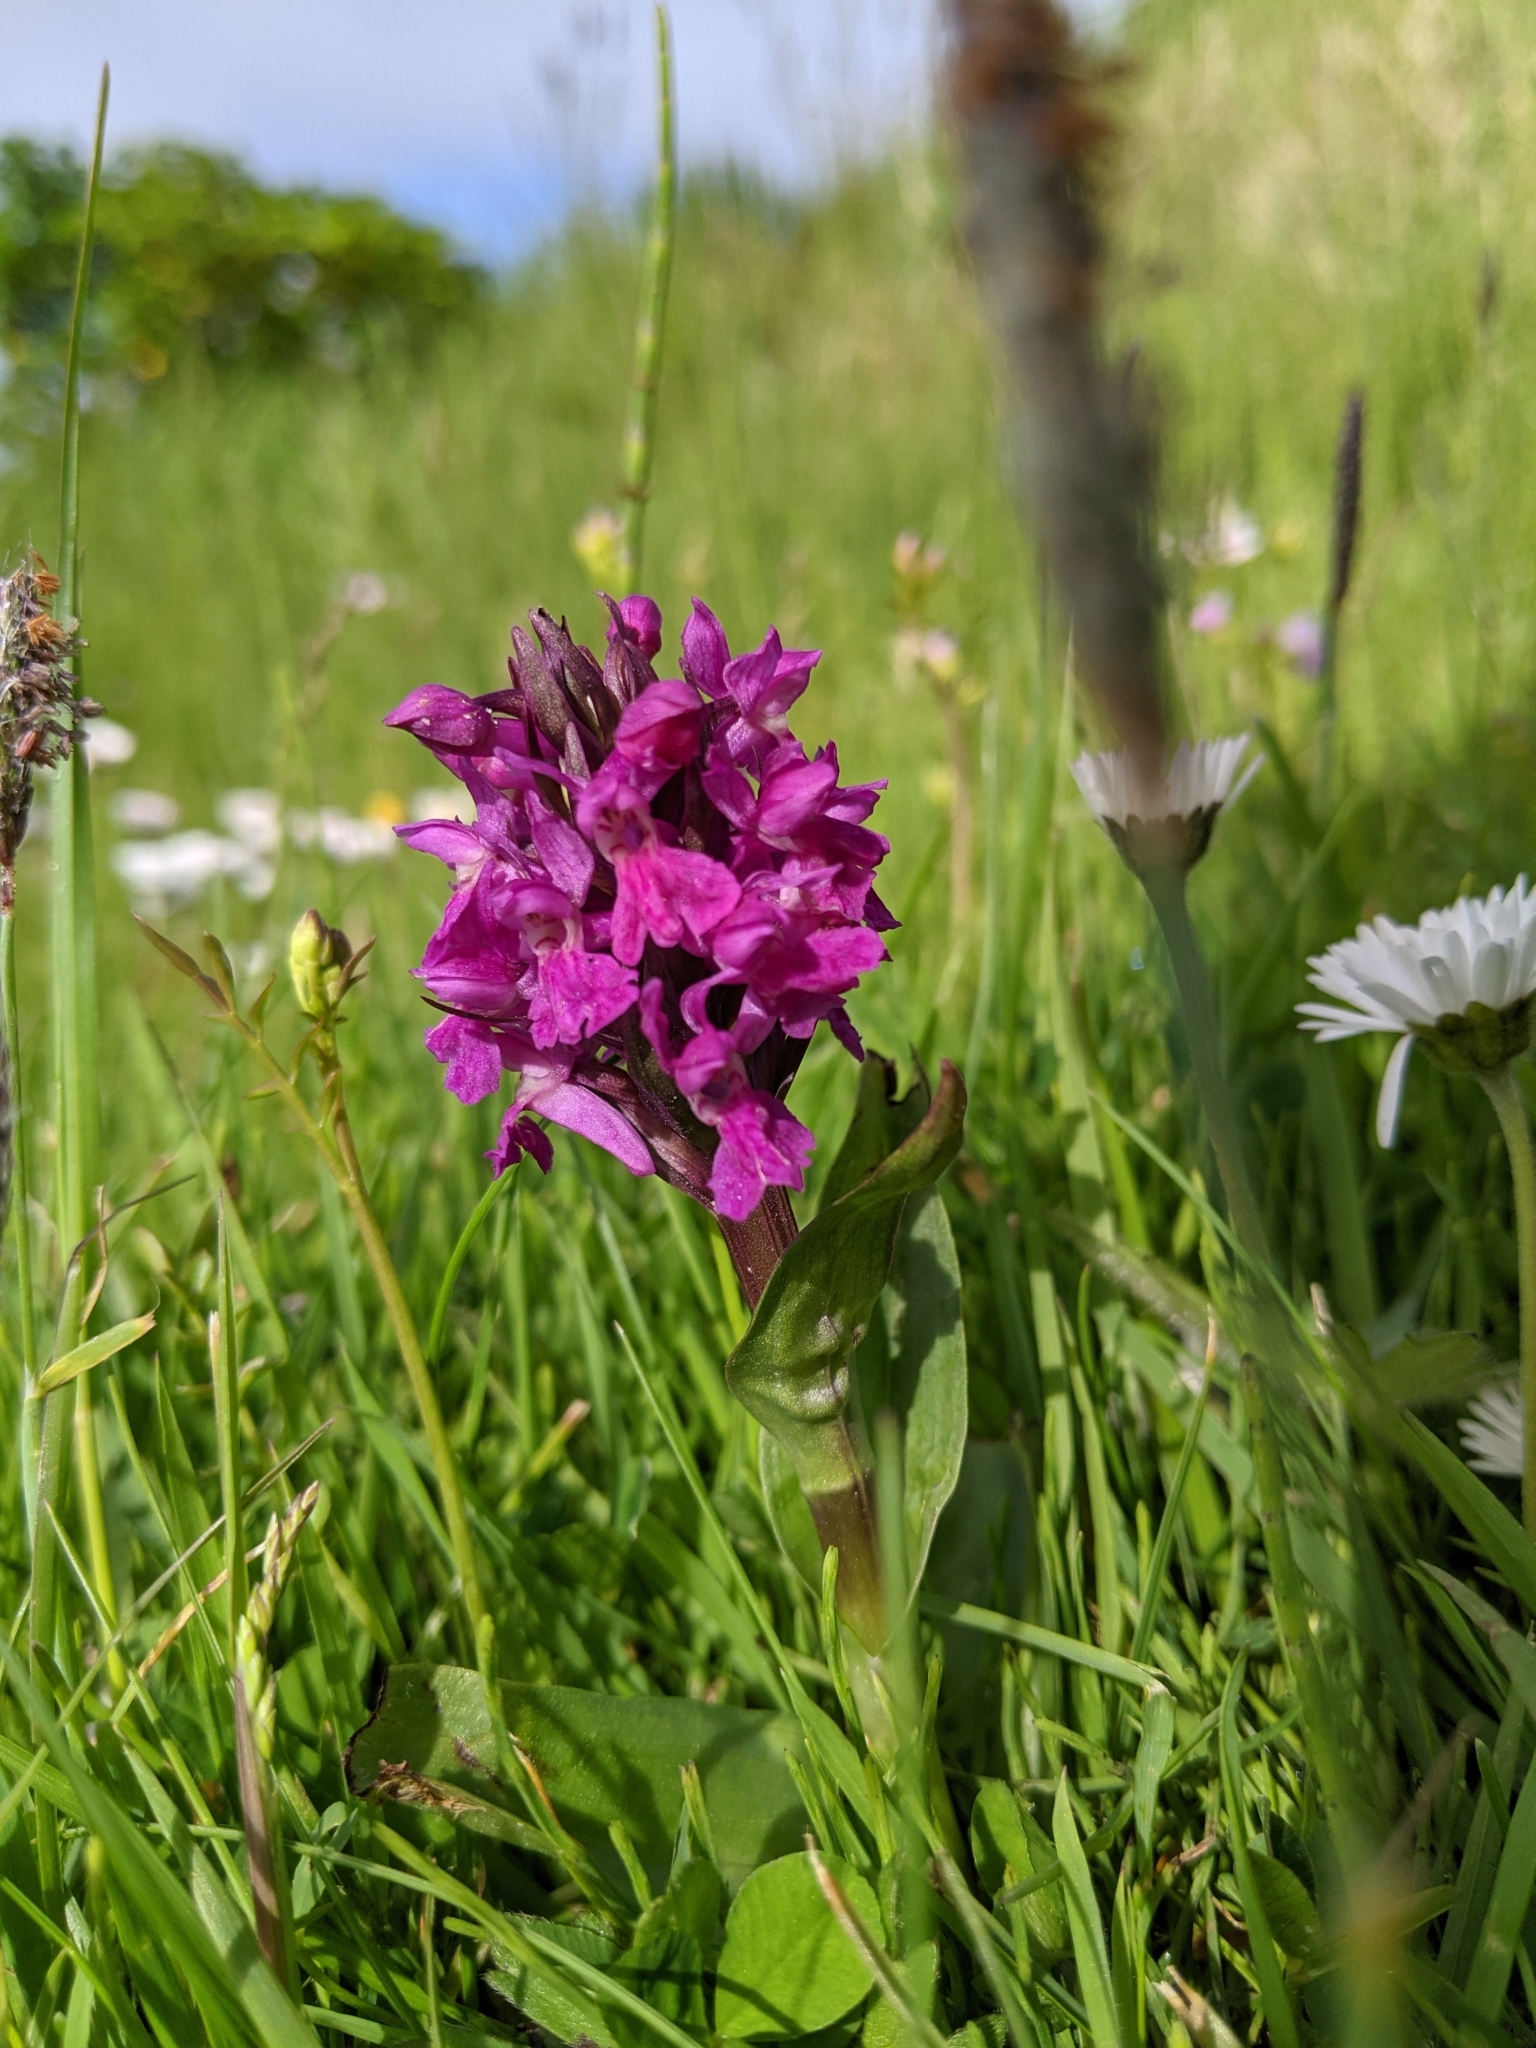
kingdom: Plantae
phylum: Tracheophyta
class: Liliopsida
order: Asparagales
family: Orchidaceae
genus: Dactylorhiza
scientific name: Dactylorhiza majalis
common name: Marsh orchid
